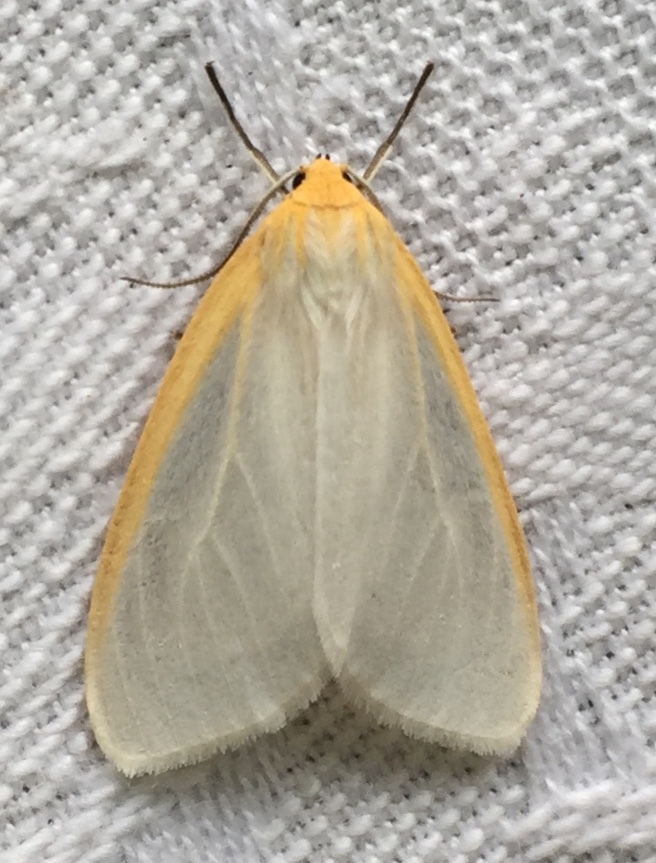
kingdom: Animalia
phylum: Arthropoda
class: Insecta
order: Lepidoptera
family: Erebidae
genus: Cycnia
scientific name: Cycnia tenera
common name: Delicate cycnia moth
